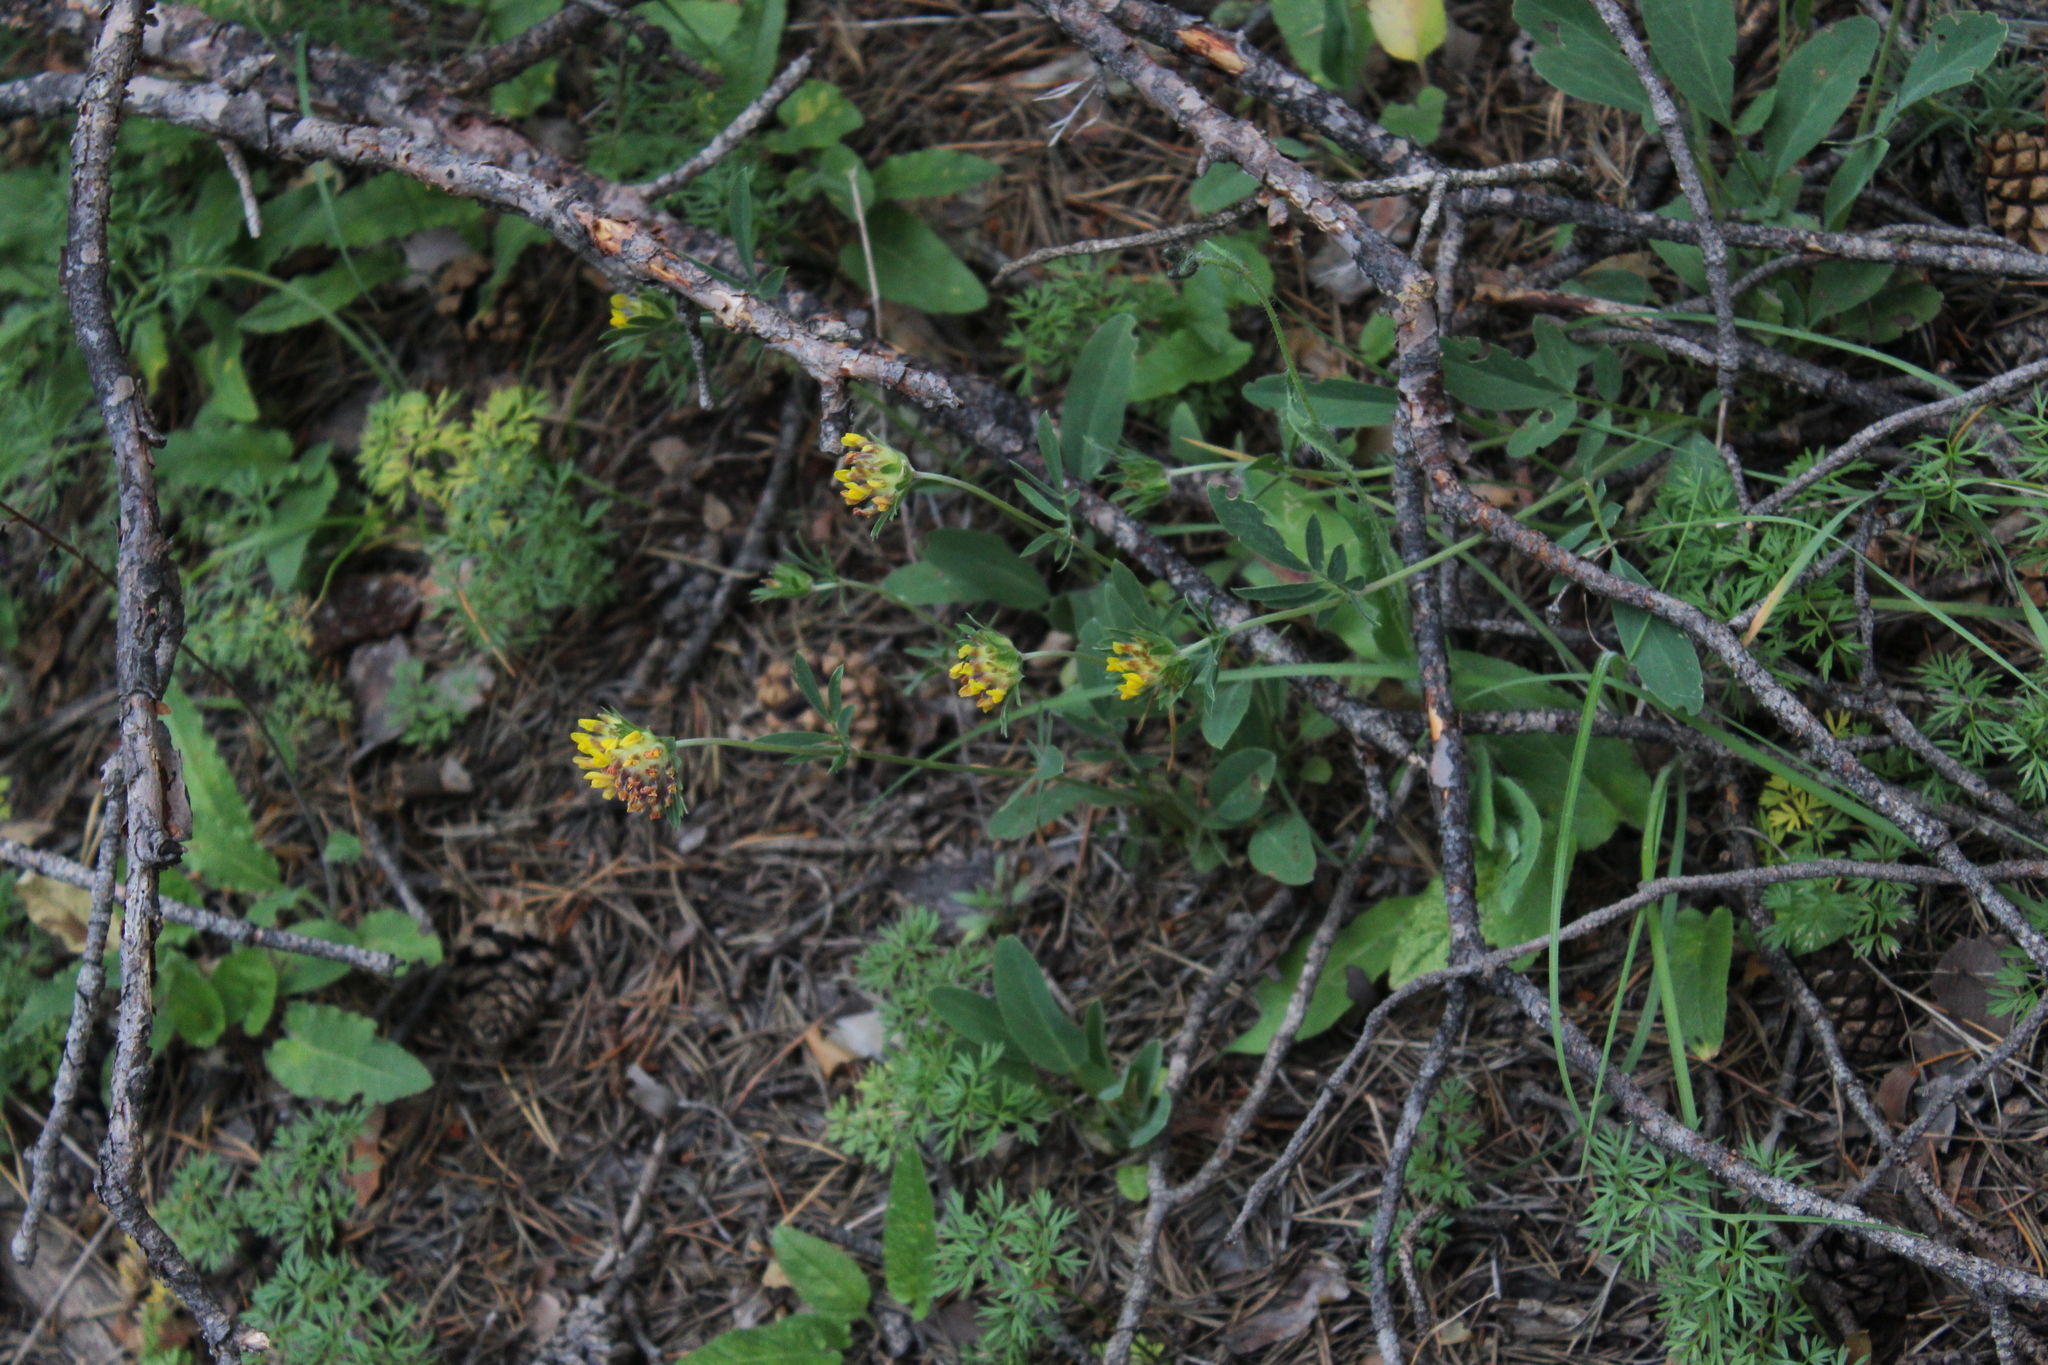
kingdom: Plantae
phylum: Tracheophyta
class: Magnoliopsida
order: Fabales
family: Fabaceae
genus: Anthyllis
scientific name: Anthyllis vulneraria
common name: Kidney vetch
